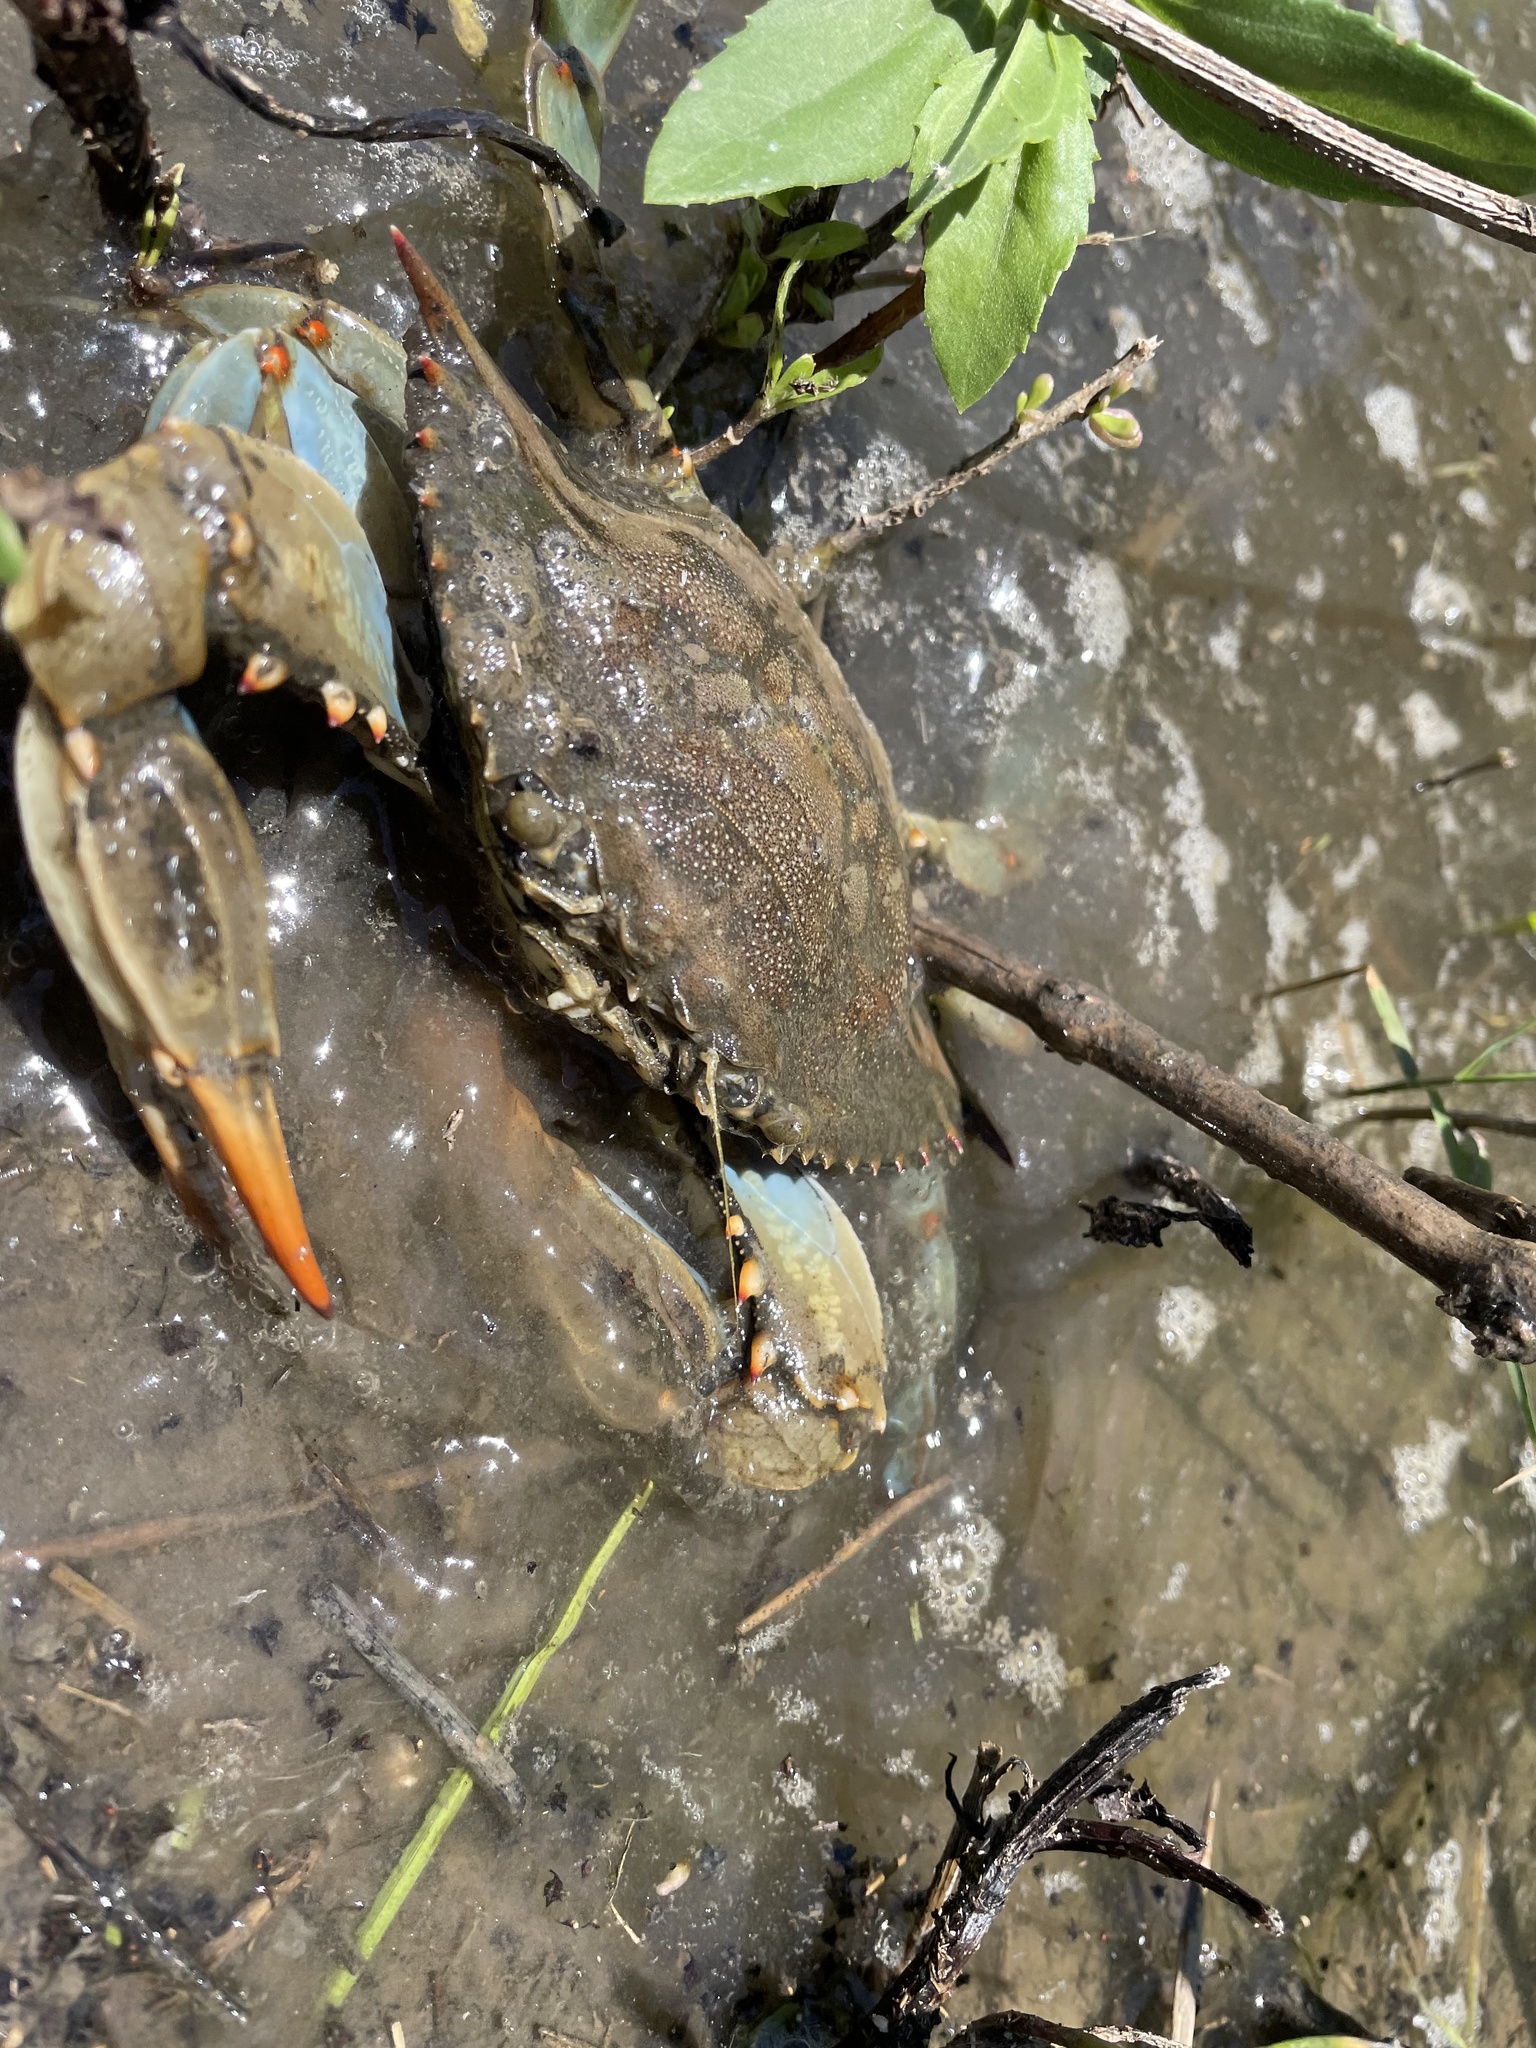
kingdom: Animalia
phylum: Arthropoda
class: Malacostraca
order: Decapoda
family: Portunidae
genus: Callinectes
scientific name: Callinectes sapidus
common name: Blue crab
